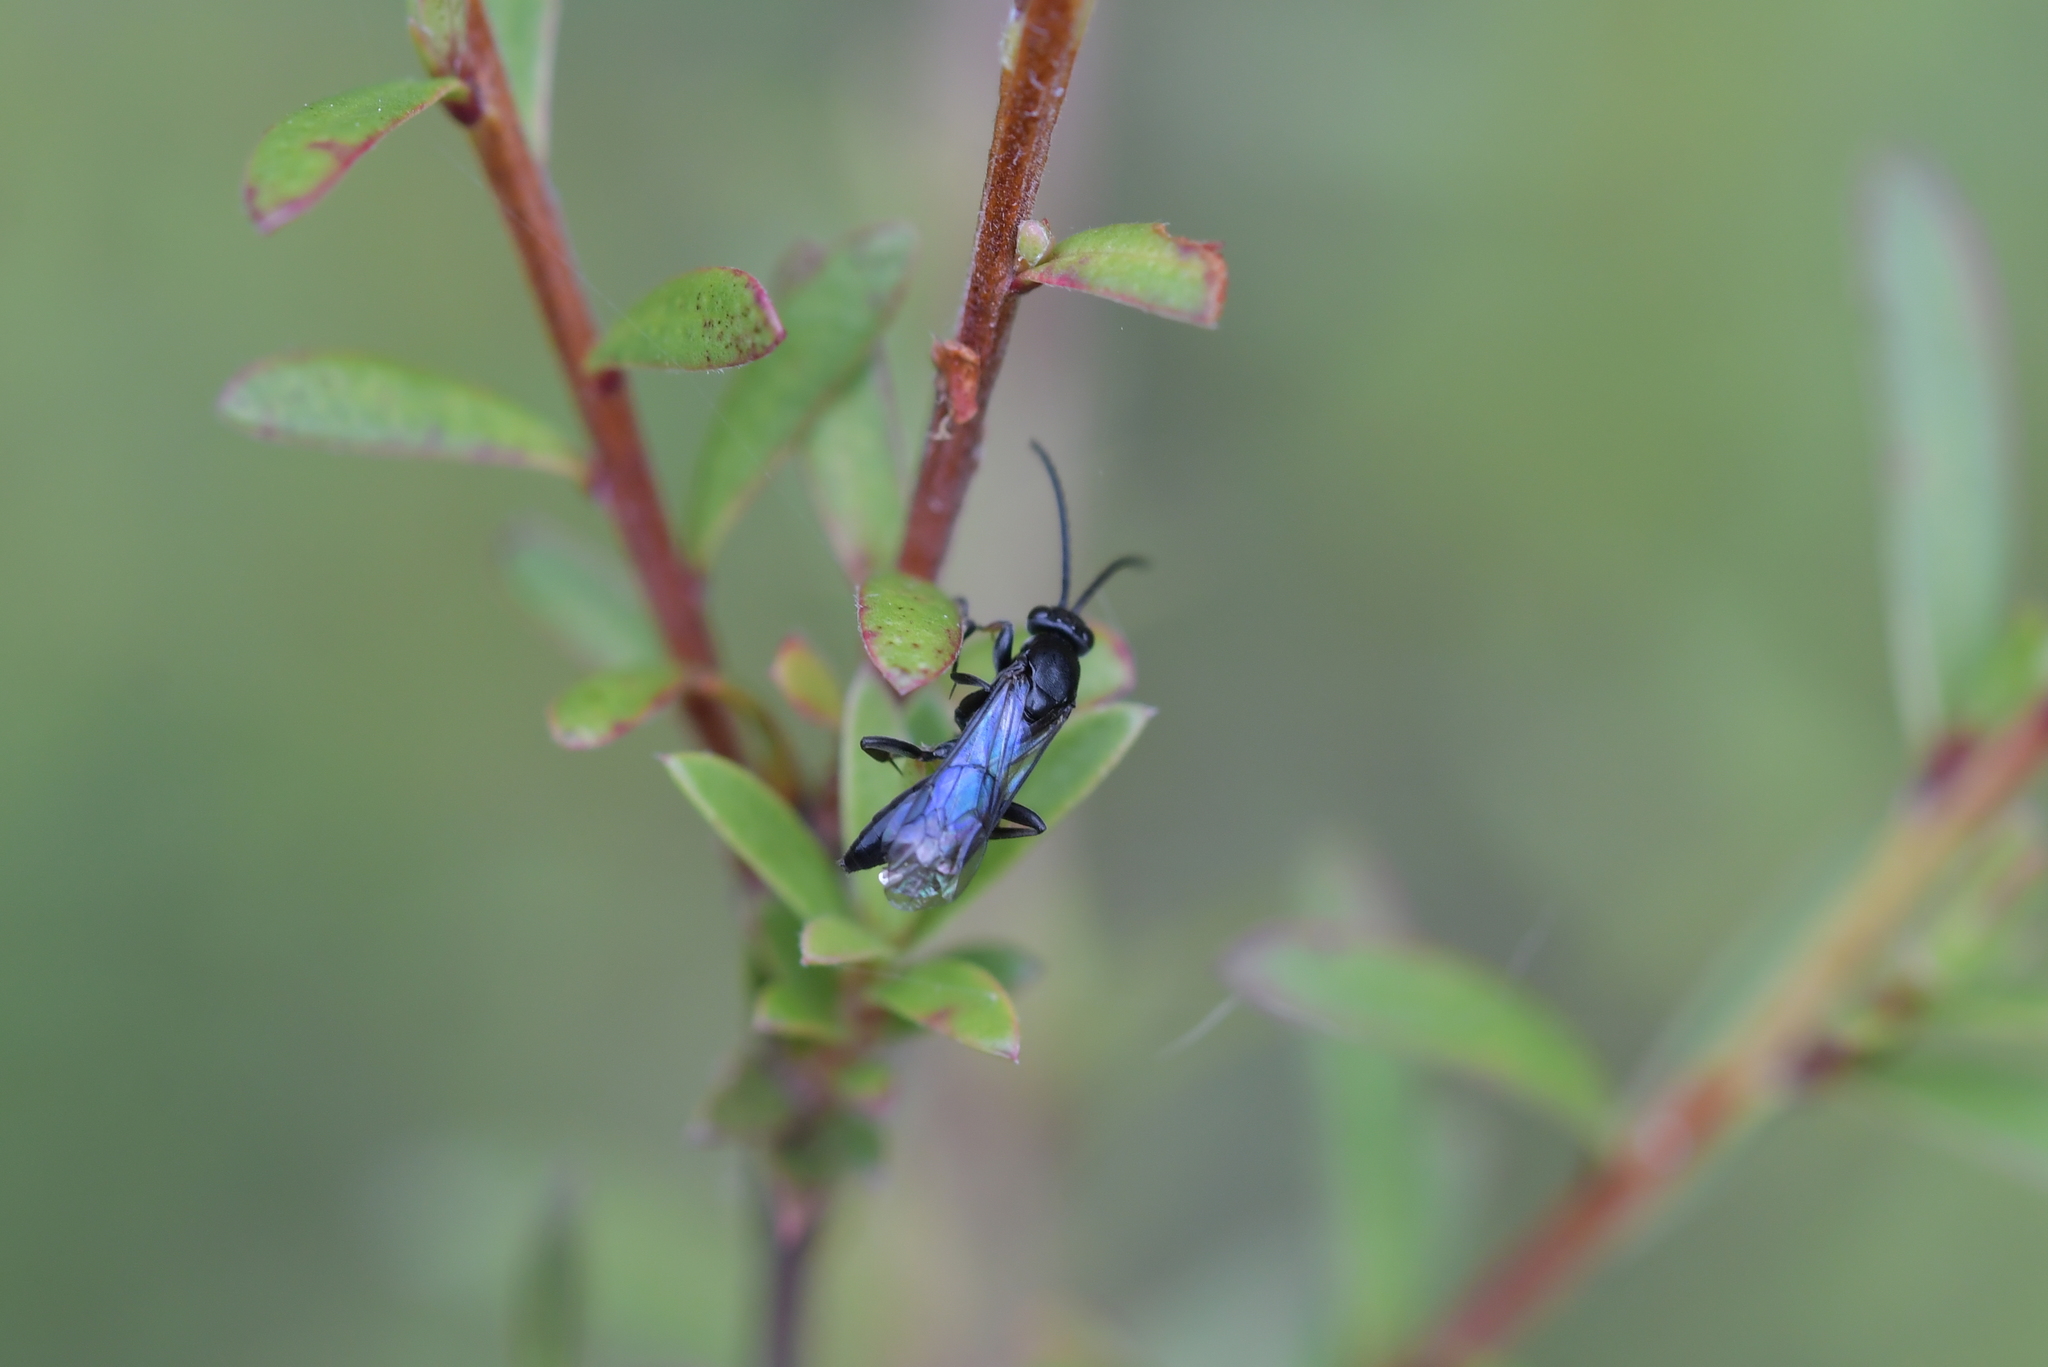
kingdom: Animalia
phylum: Arthropoda
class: Insecta
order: Hymenoptera
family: Pompilidae
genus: Priocnemis
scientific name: Priocnemis monachus
